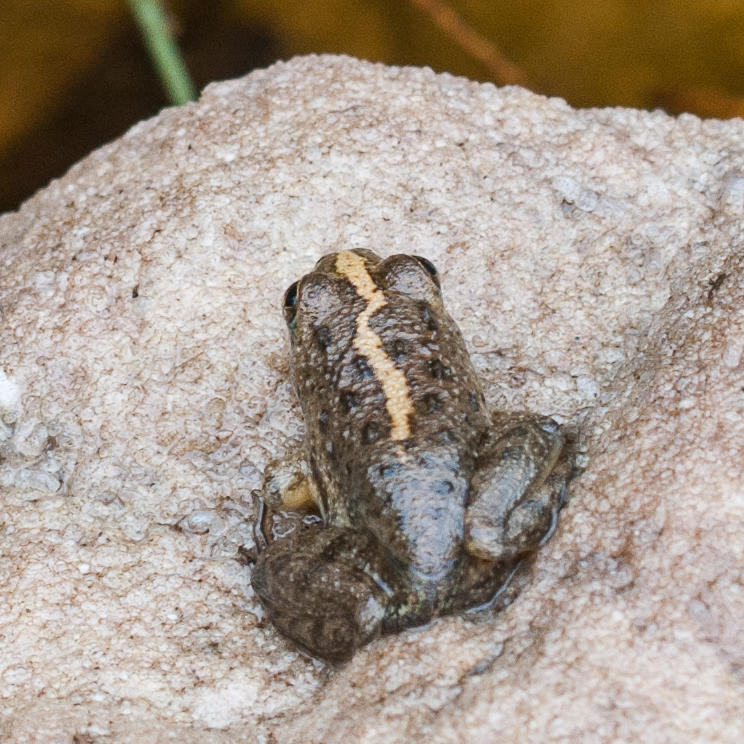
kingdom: Animalia
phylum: Chordata
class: Amphibia
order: Anura
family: Pyxicephalidae
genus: Amietia
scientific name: Amietia fuscigula
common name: Cape rana
